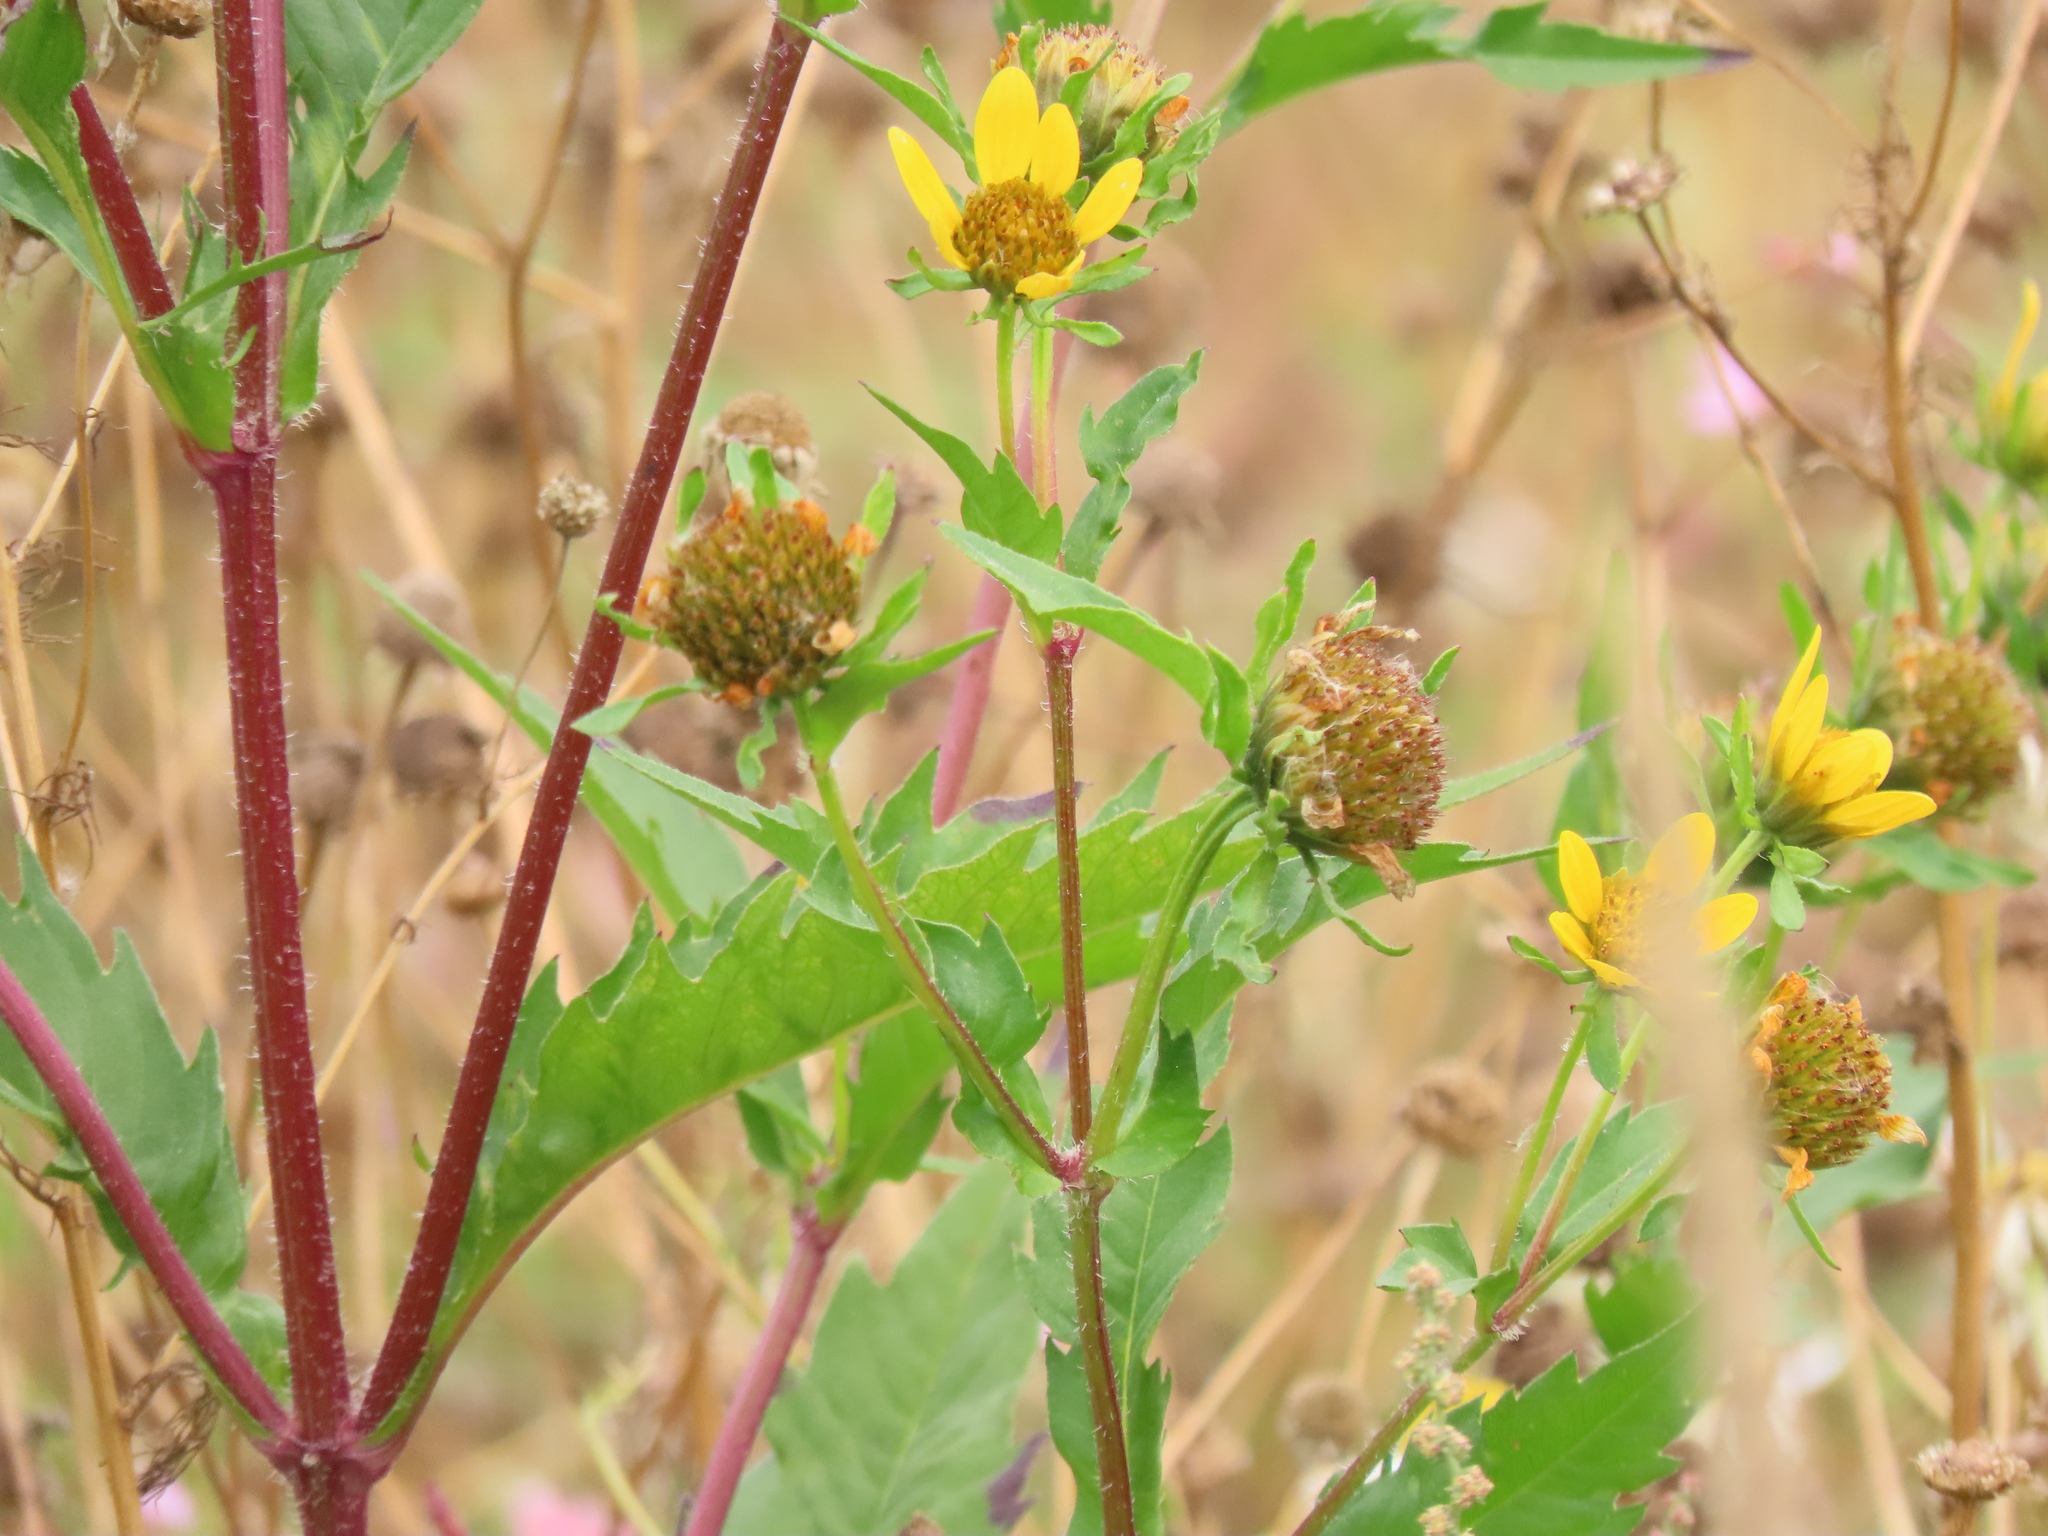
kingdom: Plantae
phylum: Tracheophyta
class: Magnoliopsida
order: Asterales
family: Asteraceae
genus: Bidens
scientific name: Bidens amplissima
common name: Vancouver island beggarticks
